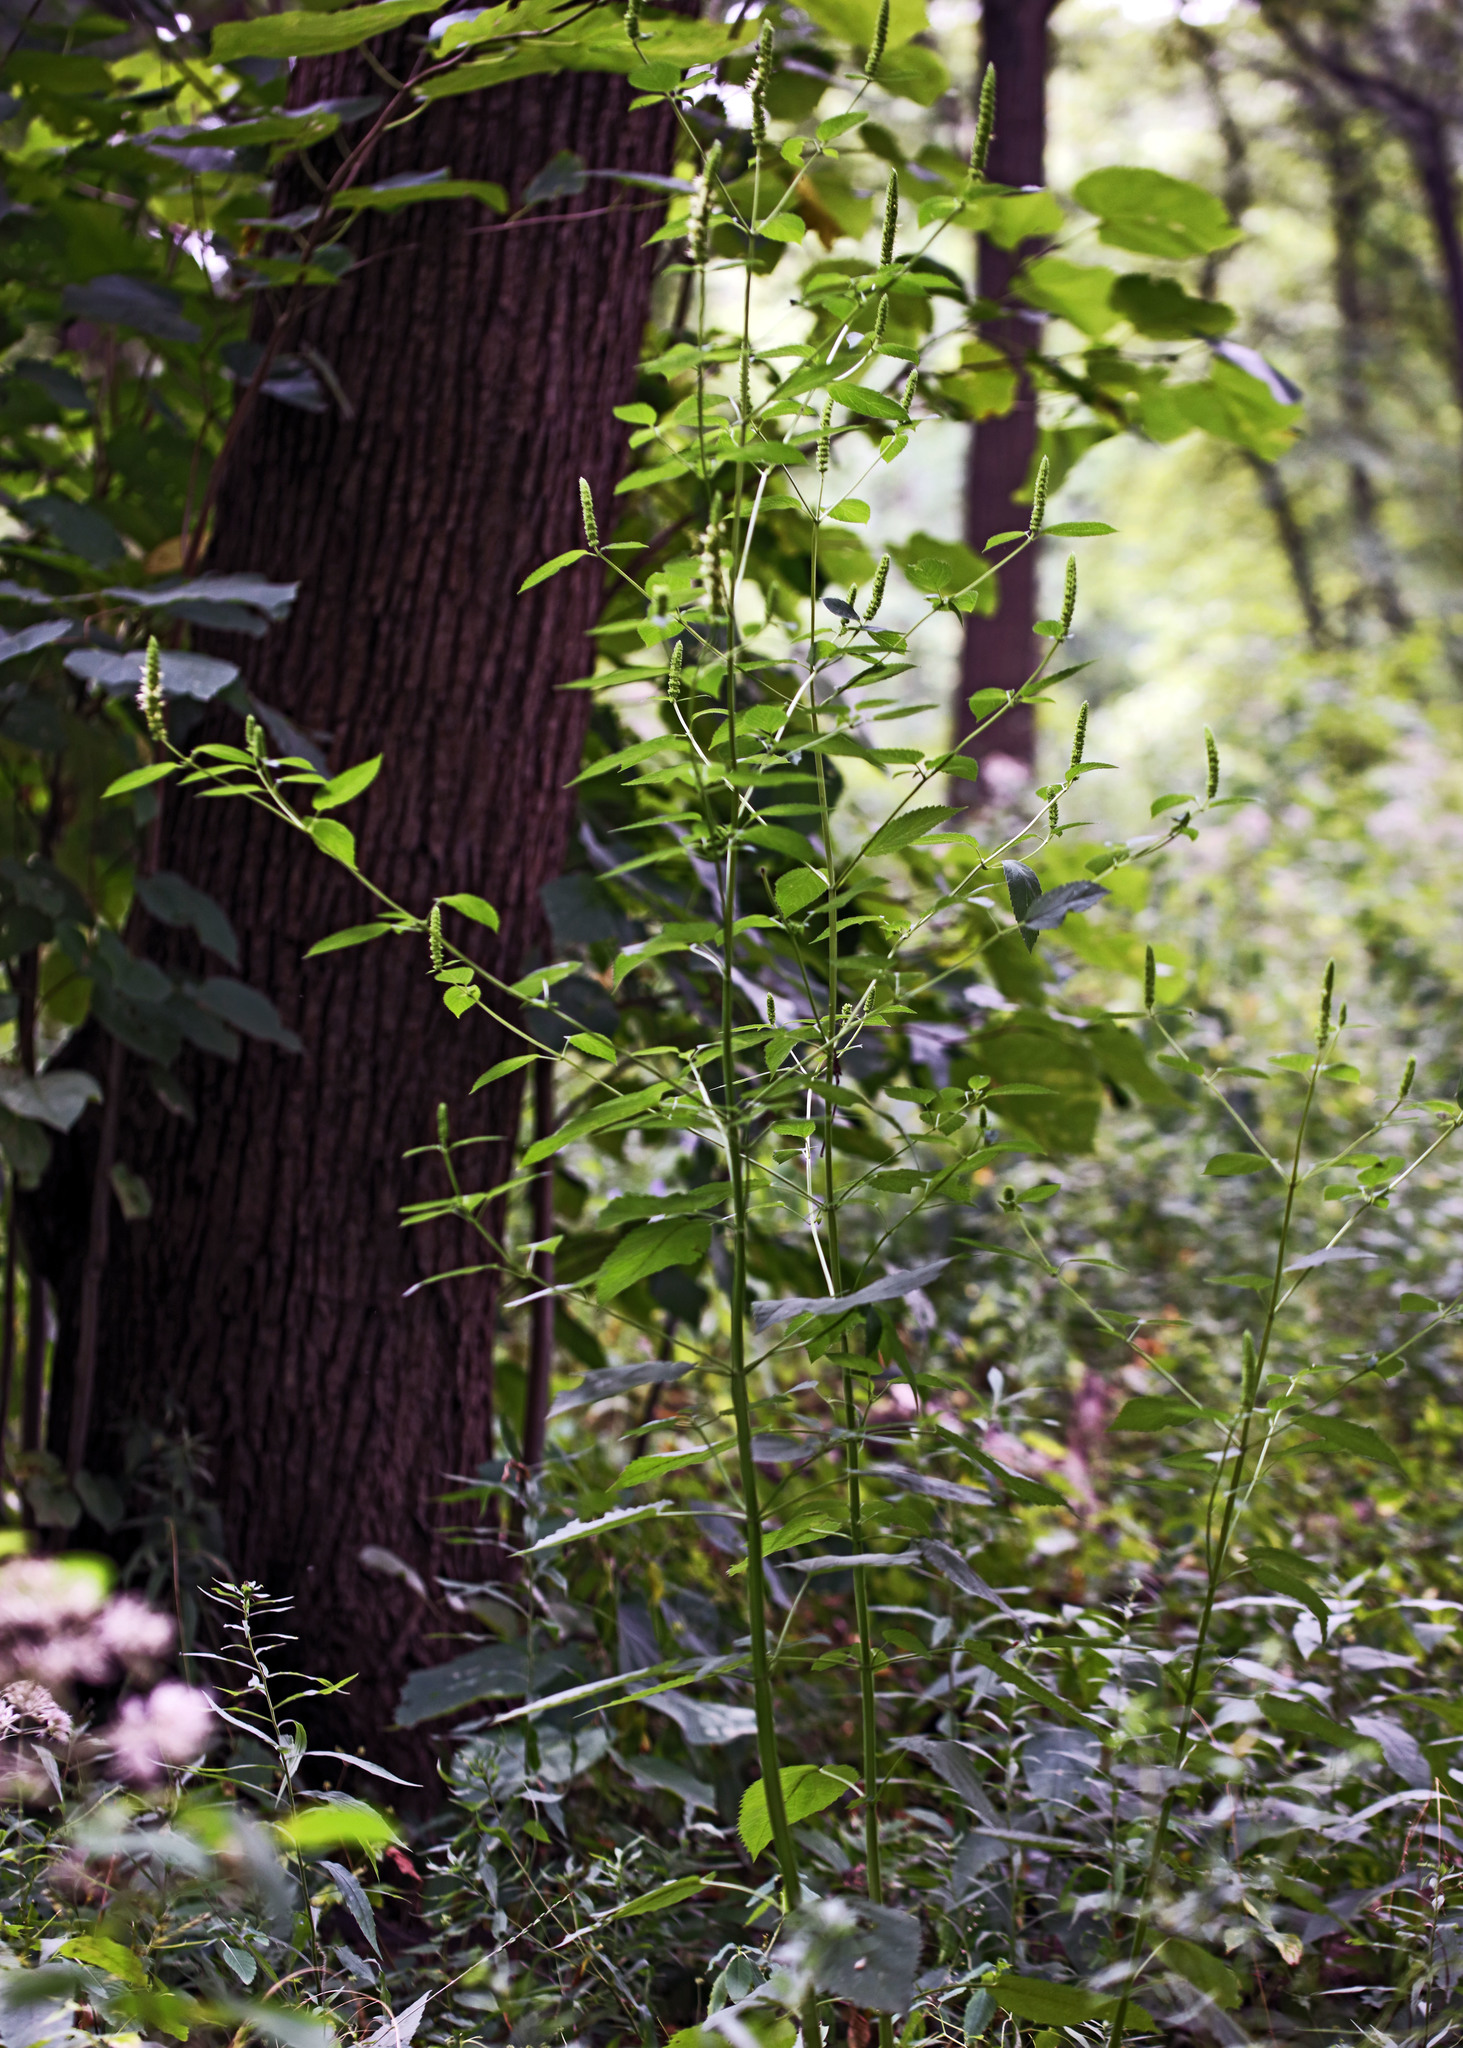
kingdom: Plantae
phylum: Tracheophyta
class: Magnoliopsida
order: Lamiales
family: Lamiaceae
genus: Agastache
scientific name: Agastache nepetoides
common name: Catnip giant hyssop
